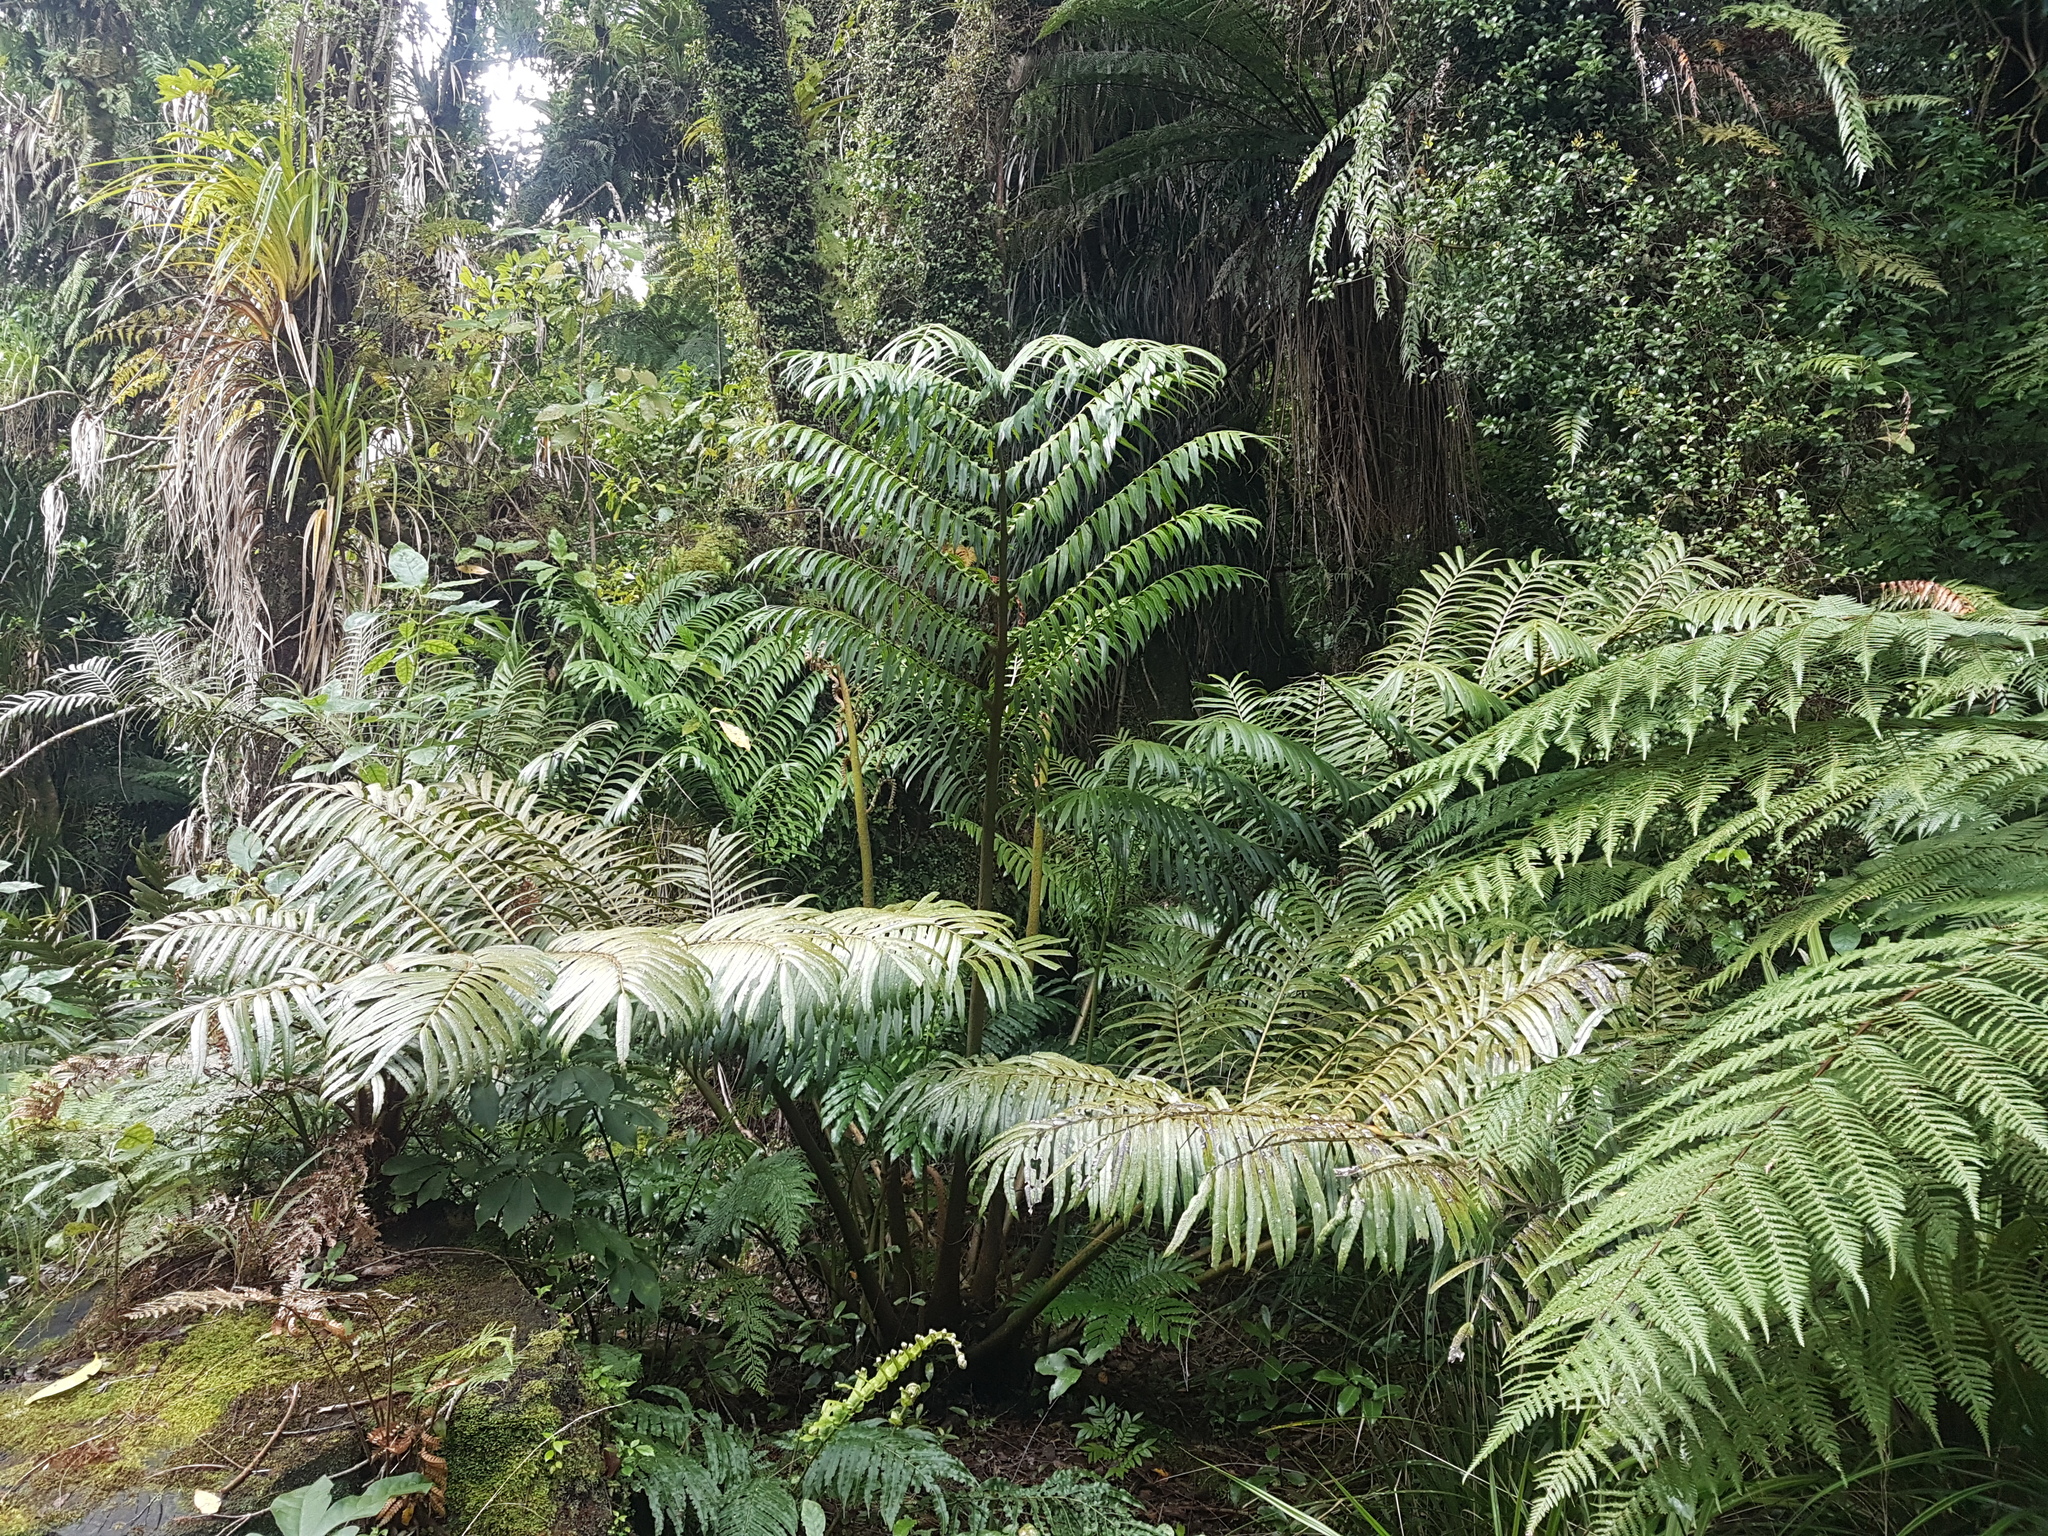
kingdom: Plantae
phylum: Tracheophyta
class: Polypodiopsida
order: Marattiales
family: Marattiaceae
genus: Ptisana
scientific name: Ptisana salicina
